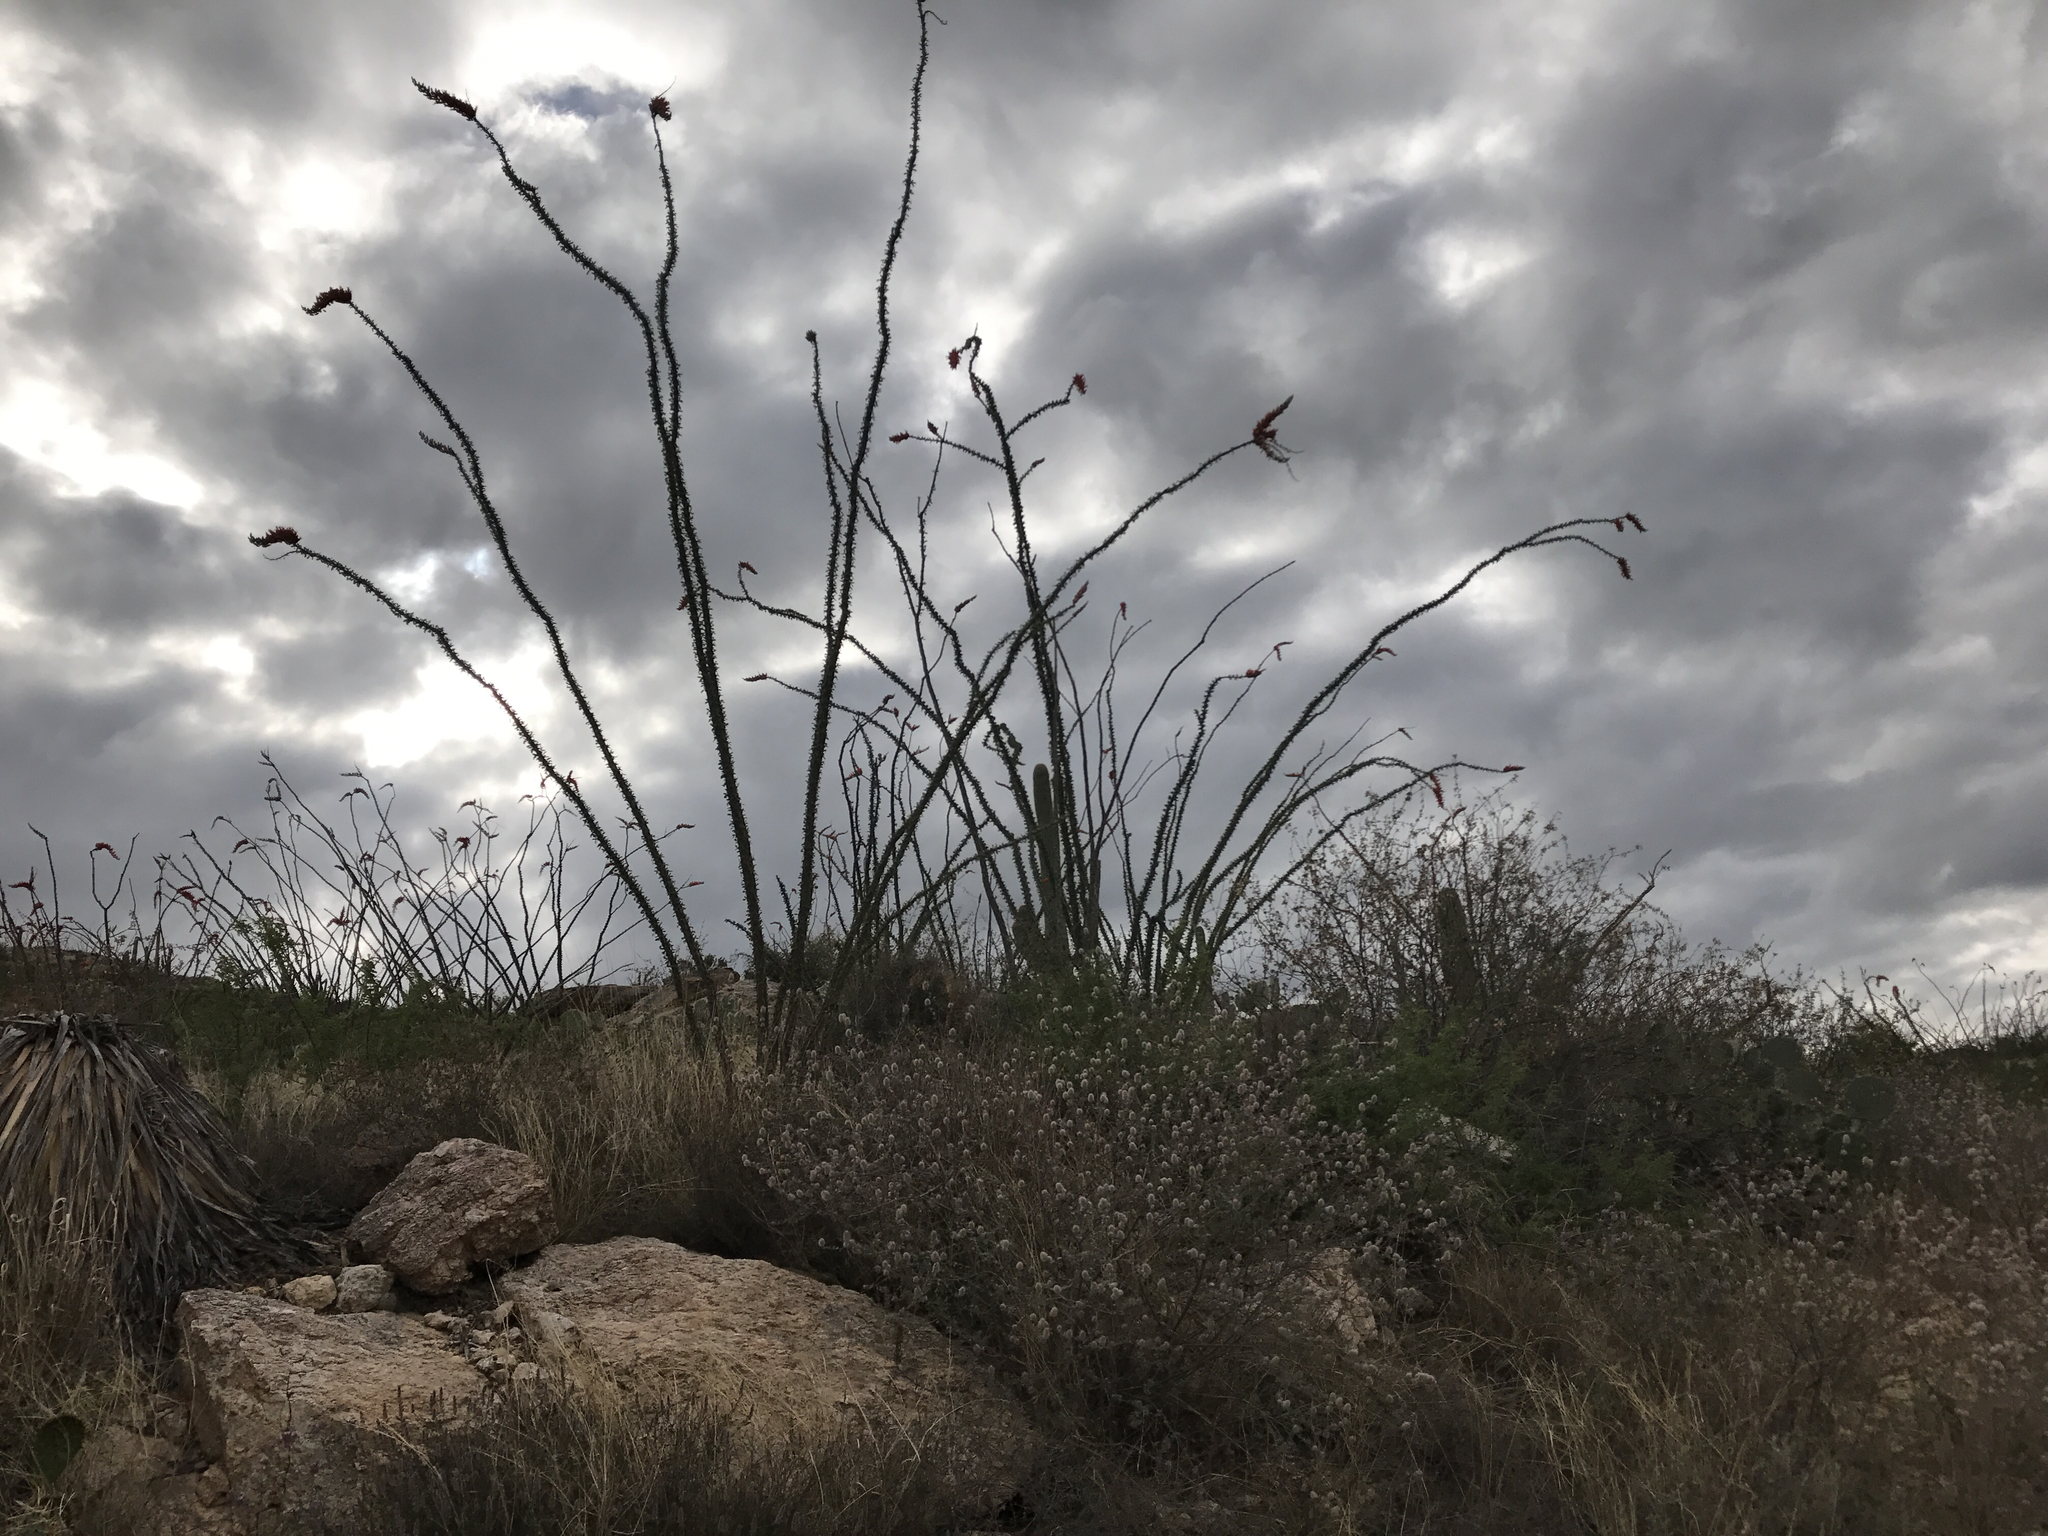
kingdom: Plantae
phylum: Tracheophyta
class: Magnoliopsida
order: Ericales
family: Fouquieriaceae
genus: Fouquieria
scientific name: Fouquieria splendens
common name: Vine-cactus
